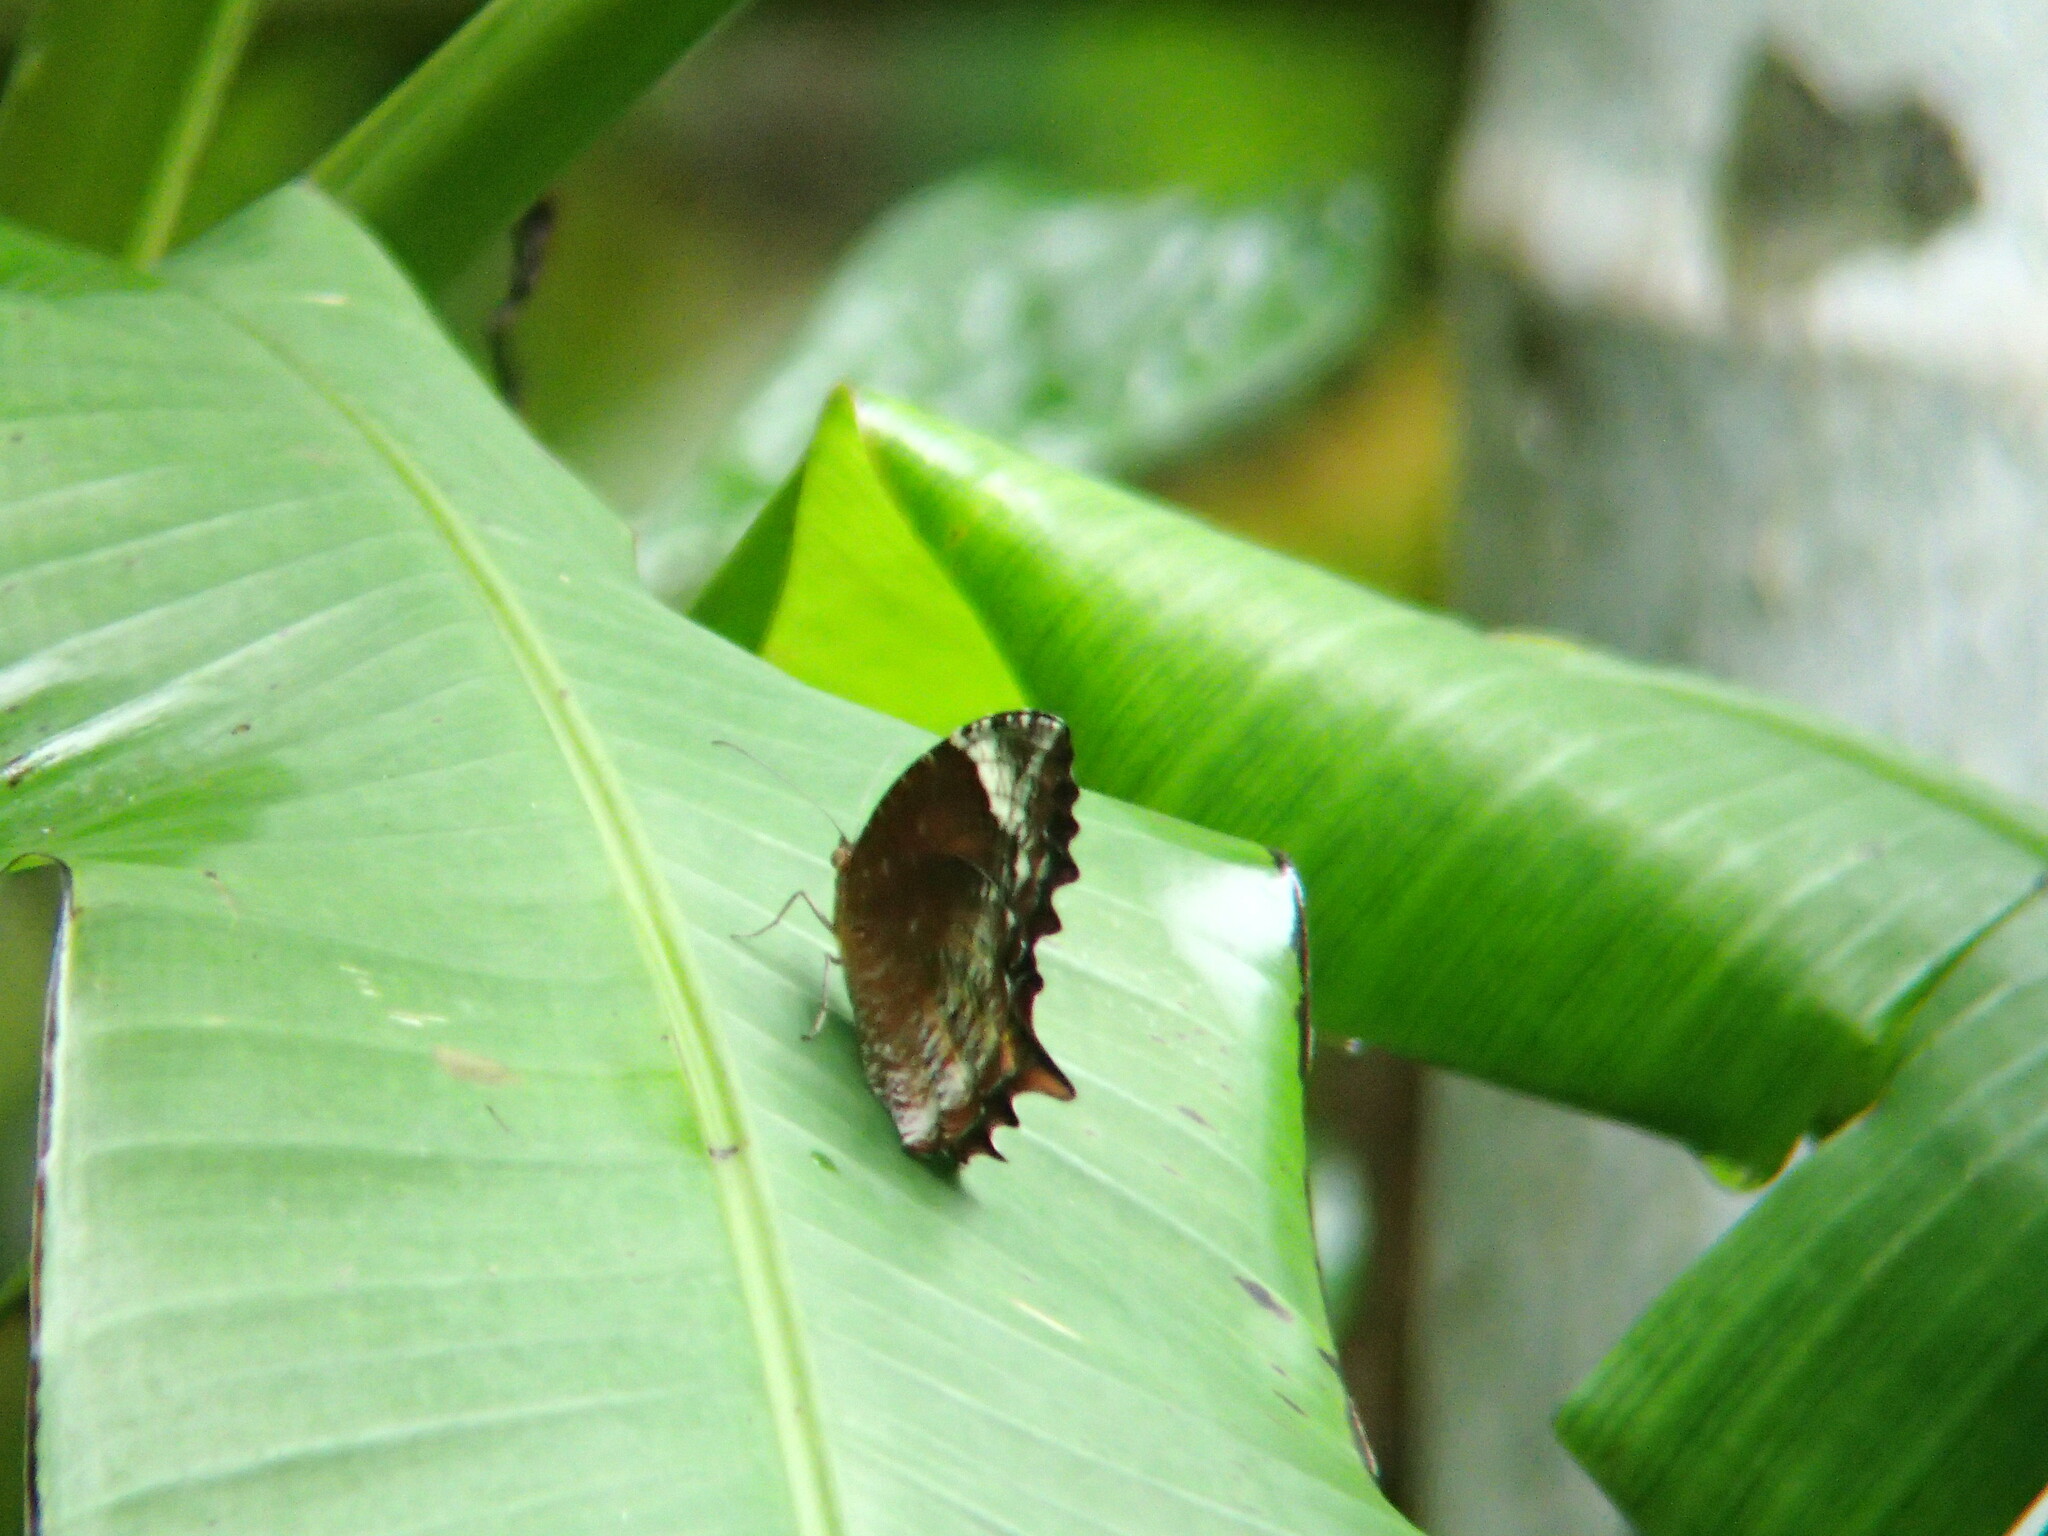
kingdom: Animalia
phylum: Arthropoda
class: Insecta
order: Lepidoptera
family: Nymphalidae
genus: Elymnias
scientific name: Elymnias caudata
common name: Tailed palmfly
